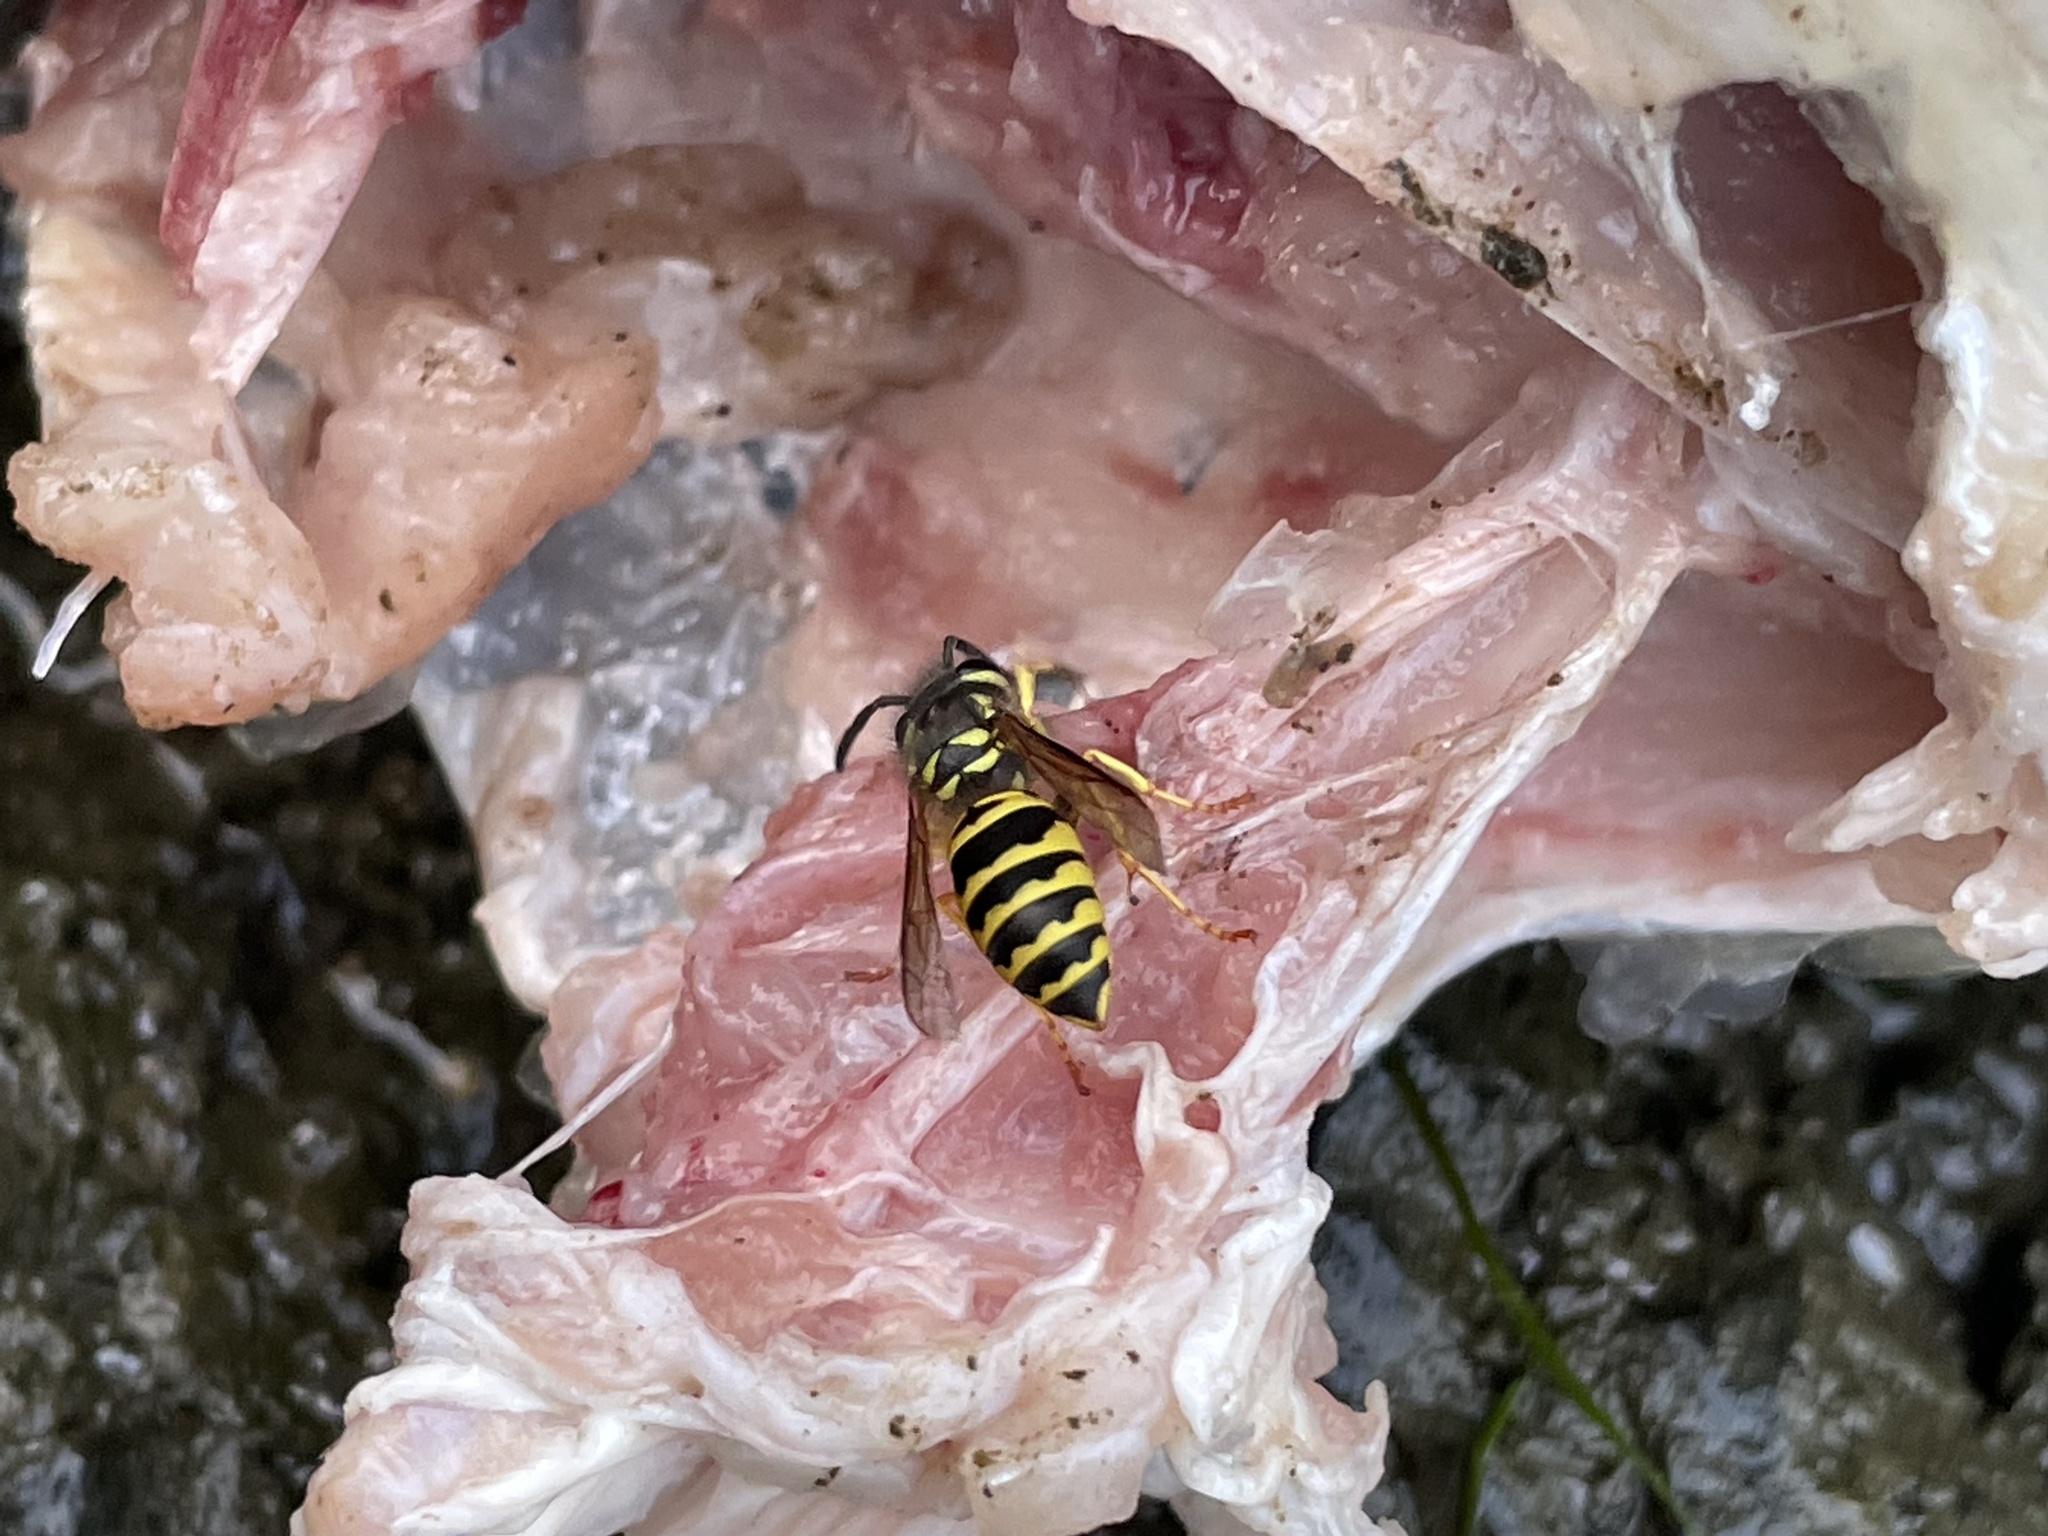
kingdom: Animalia
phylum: Arthropoda
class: Insecta
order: Hymenoptera
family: Vespidae
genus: Vespula
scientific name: Vespula maculifrons
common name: Eastern yellowjacket
